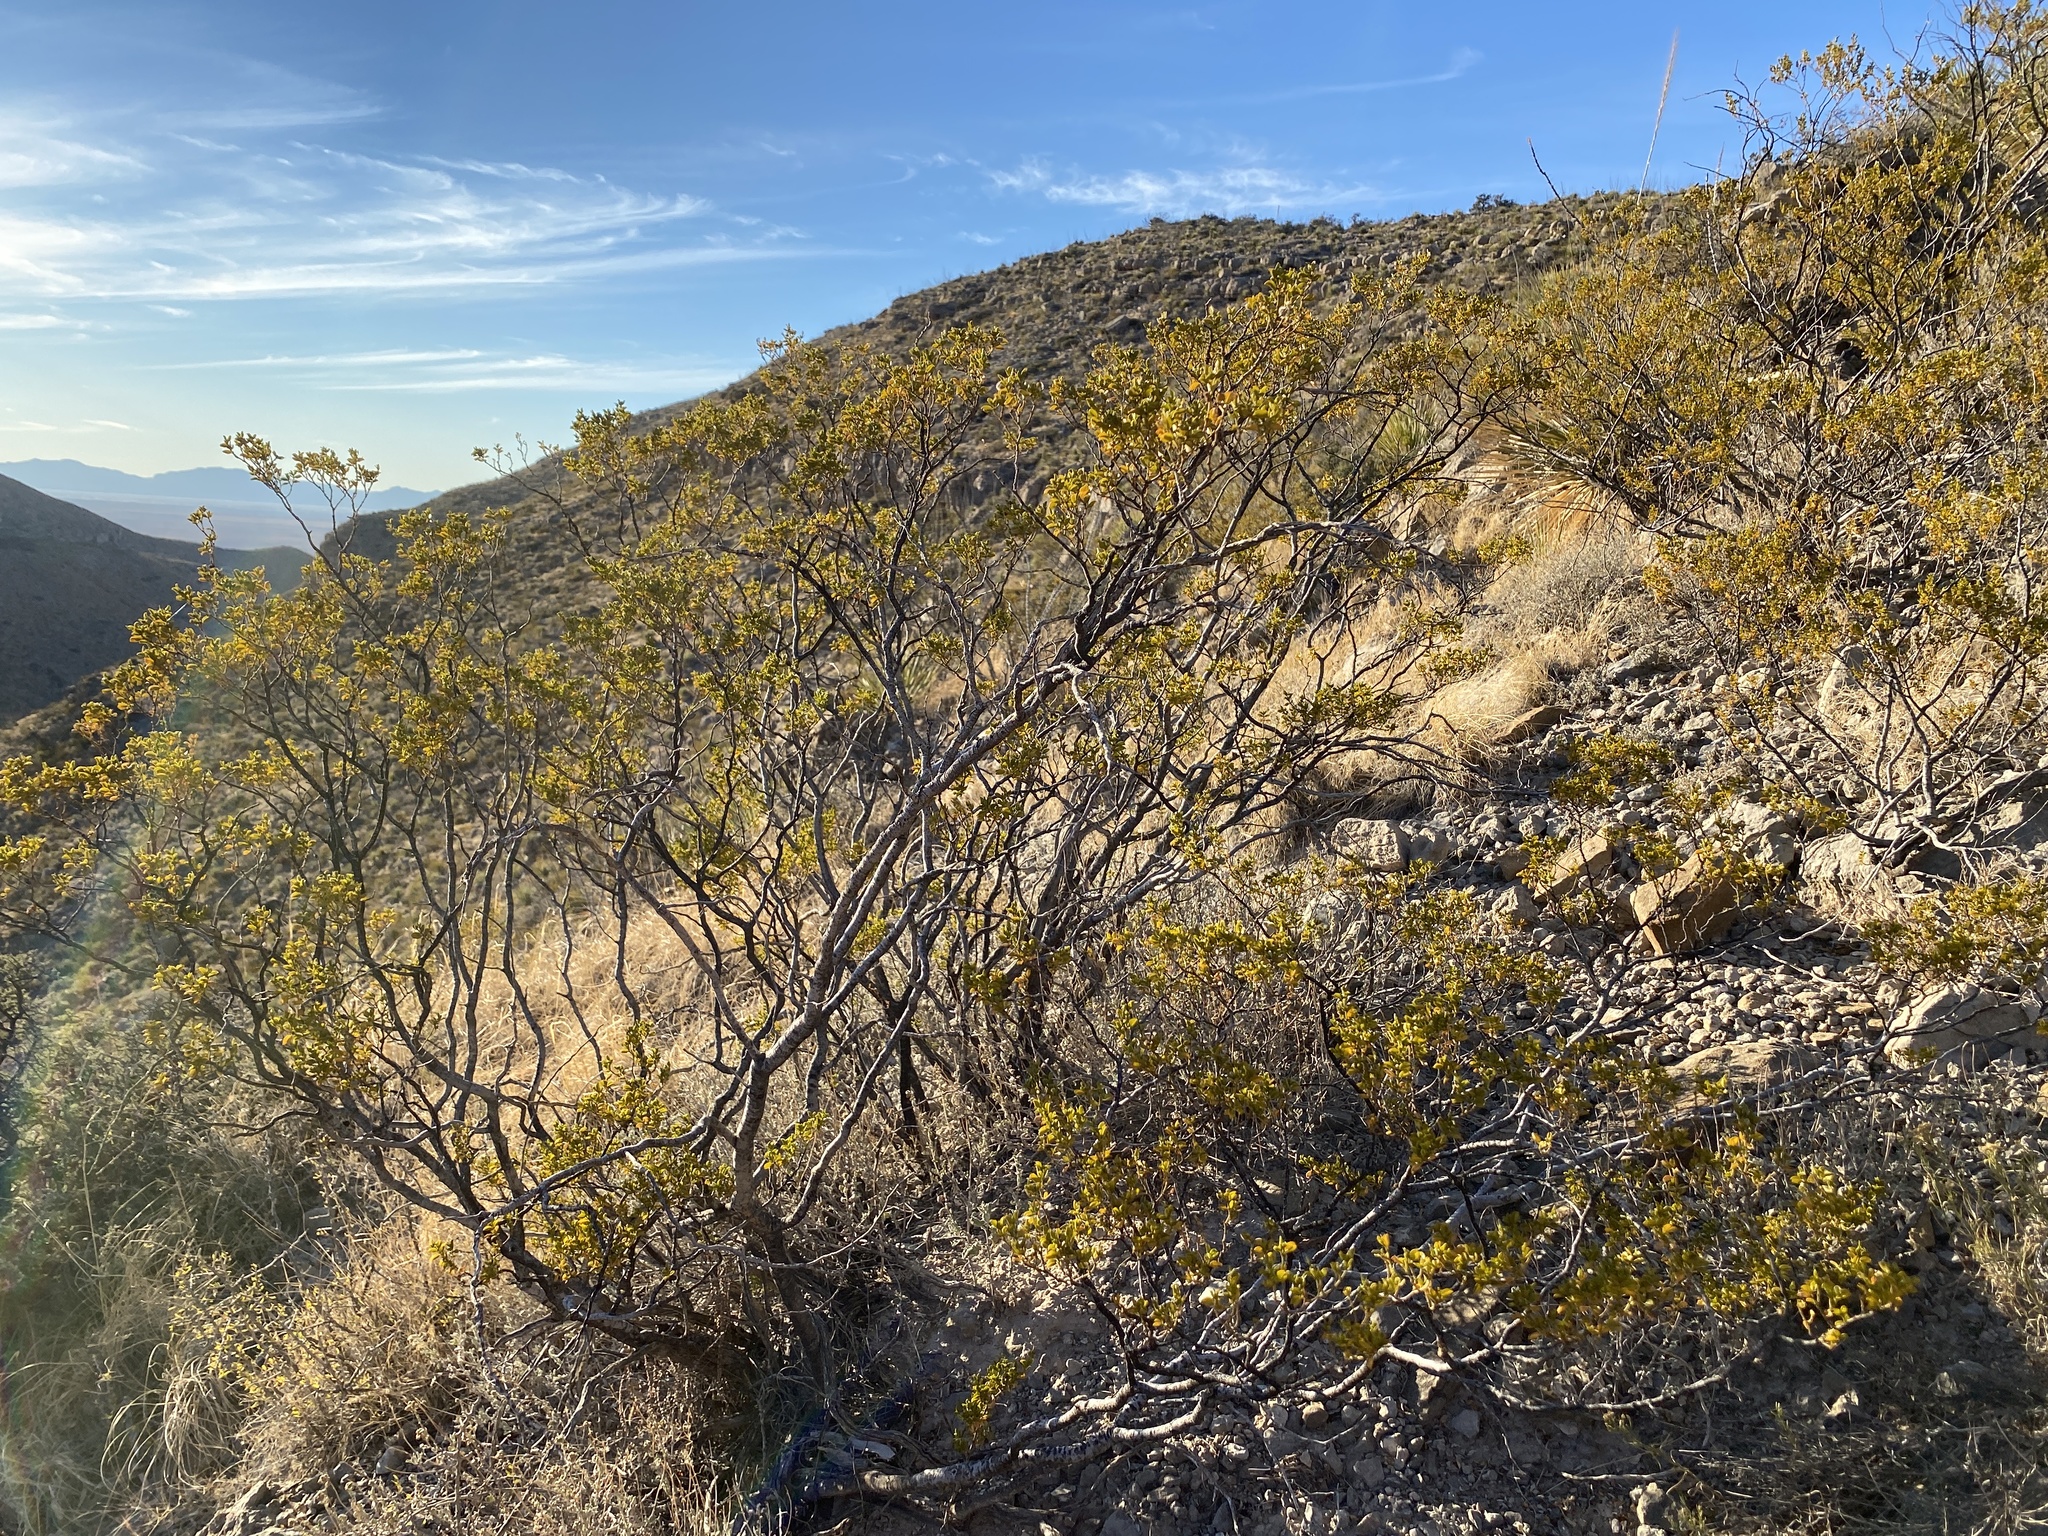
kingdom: Plantae
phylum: Tracheophyta
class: Magnoliopsida
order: Zygophyllales
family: Zygophyllaceae
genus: Larrea
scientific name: Larrea tridentata
